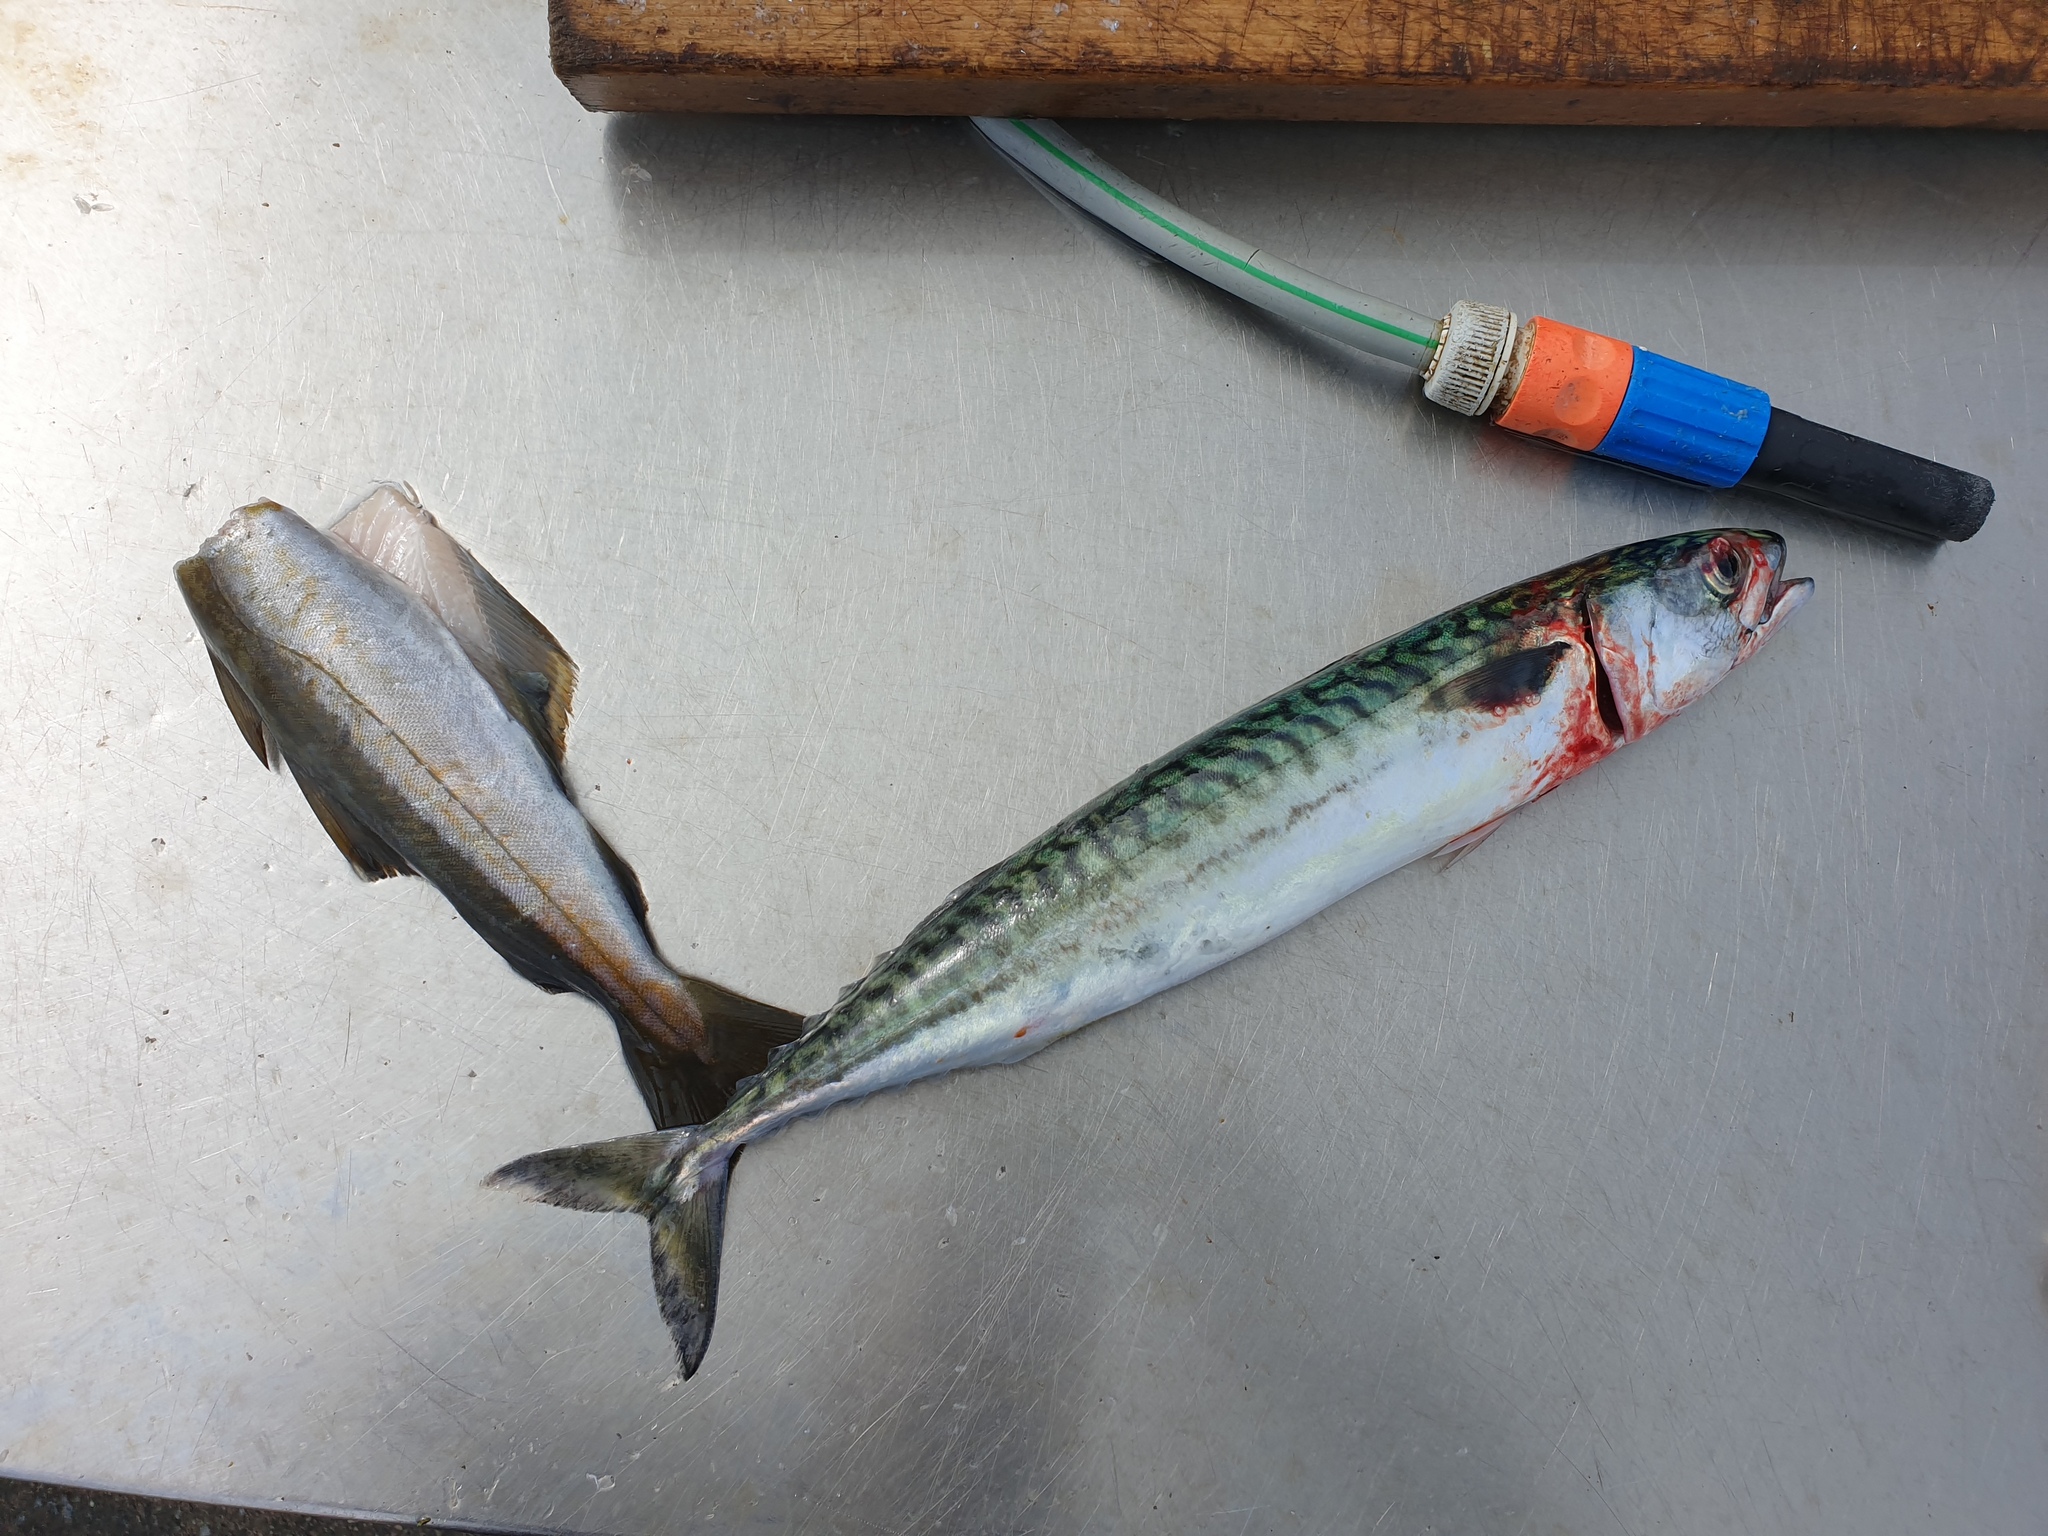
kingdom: Animalia
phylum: Chordata
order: Perciformes
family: Scombridae
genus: Scomber
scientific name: Scomber scombrus
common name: Mackerel
